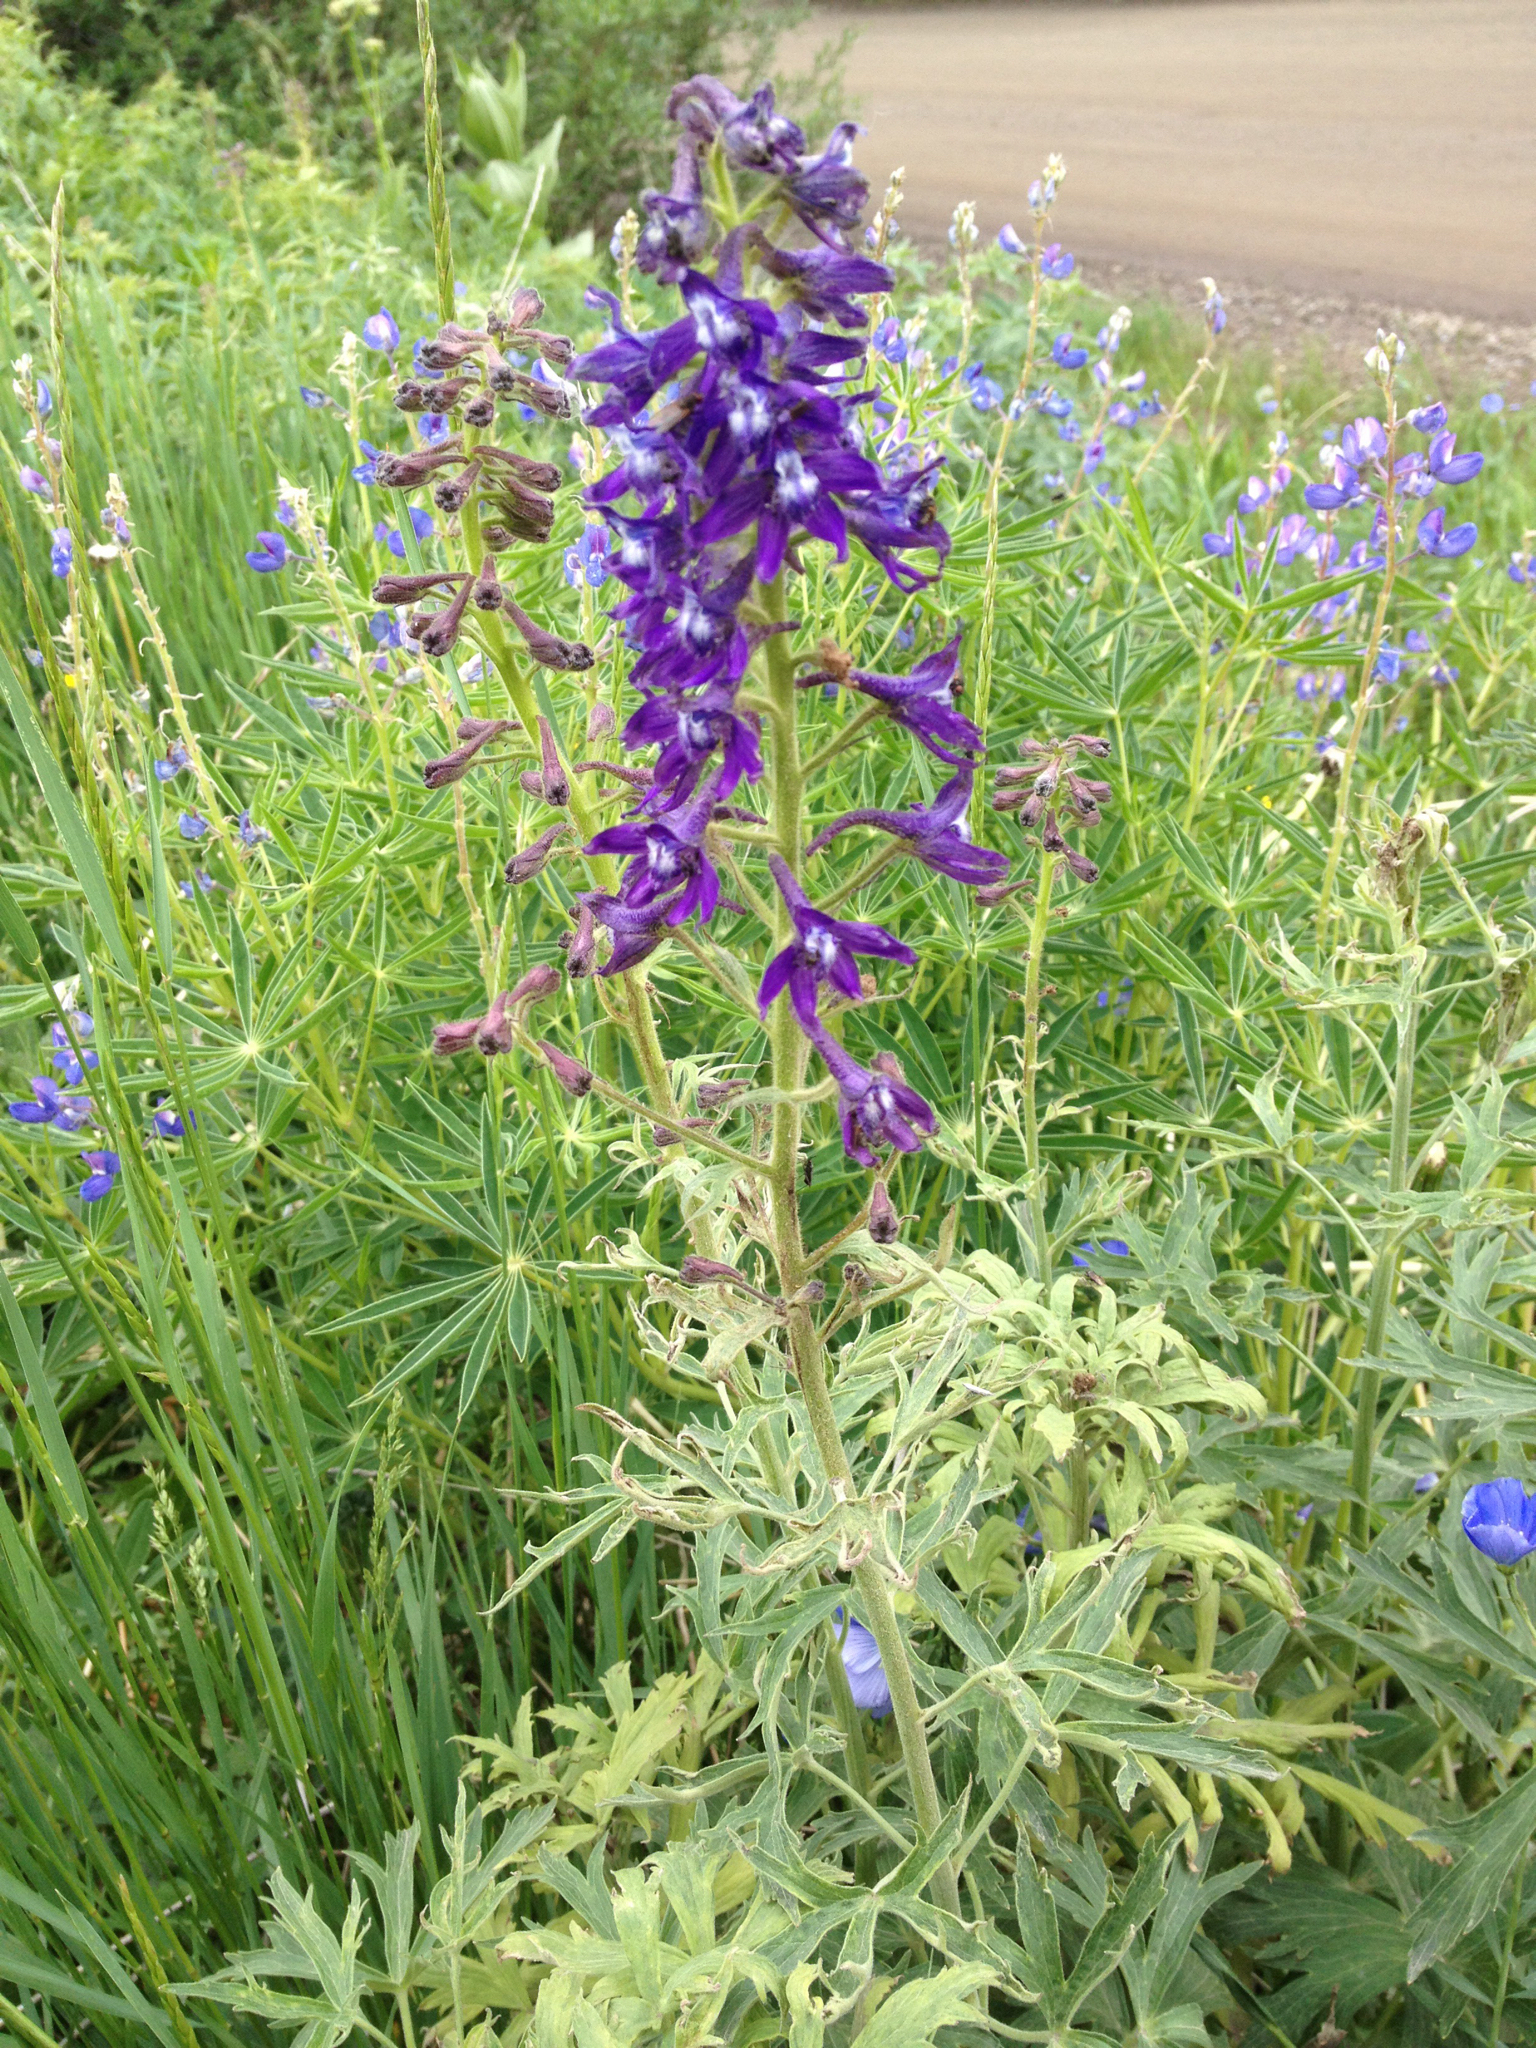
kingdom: Plantae
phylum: Tracheophyta
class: Magnoliopsida
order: Ranunculales
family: Ranunculaceae
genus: Delphinium
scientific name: Delphinium barbeyi
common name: Subalpine larkspur
